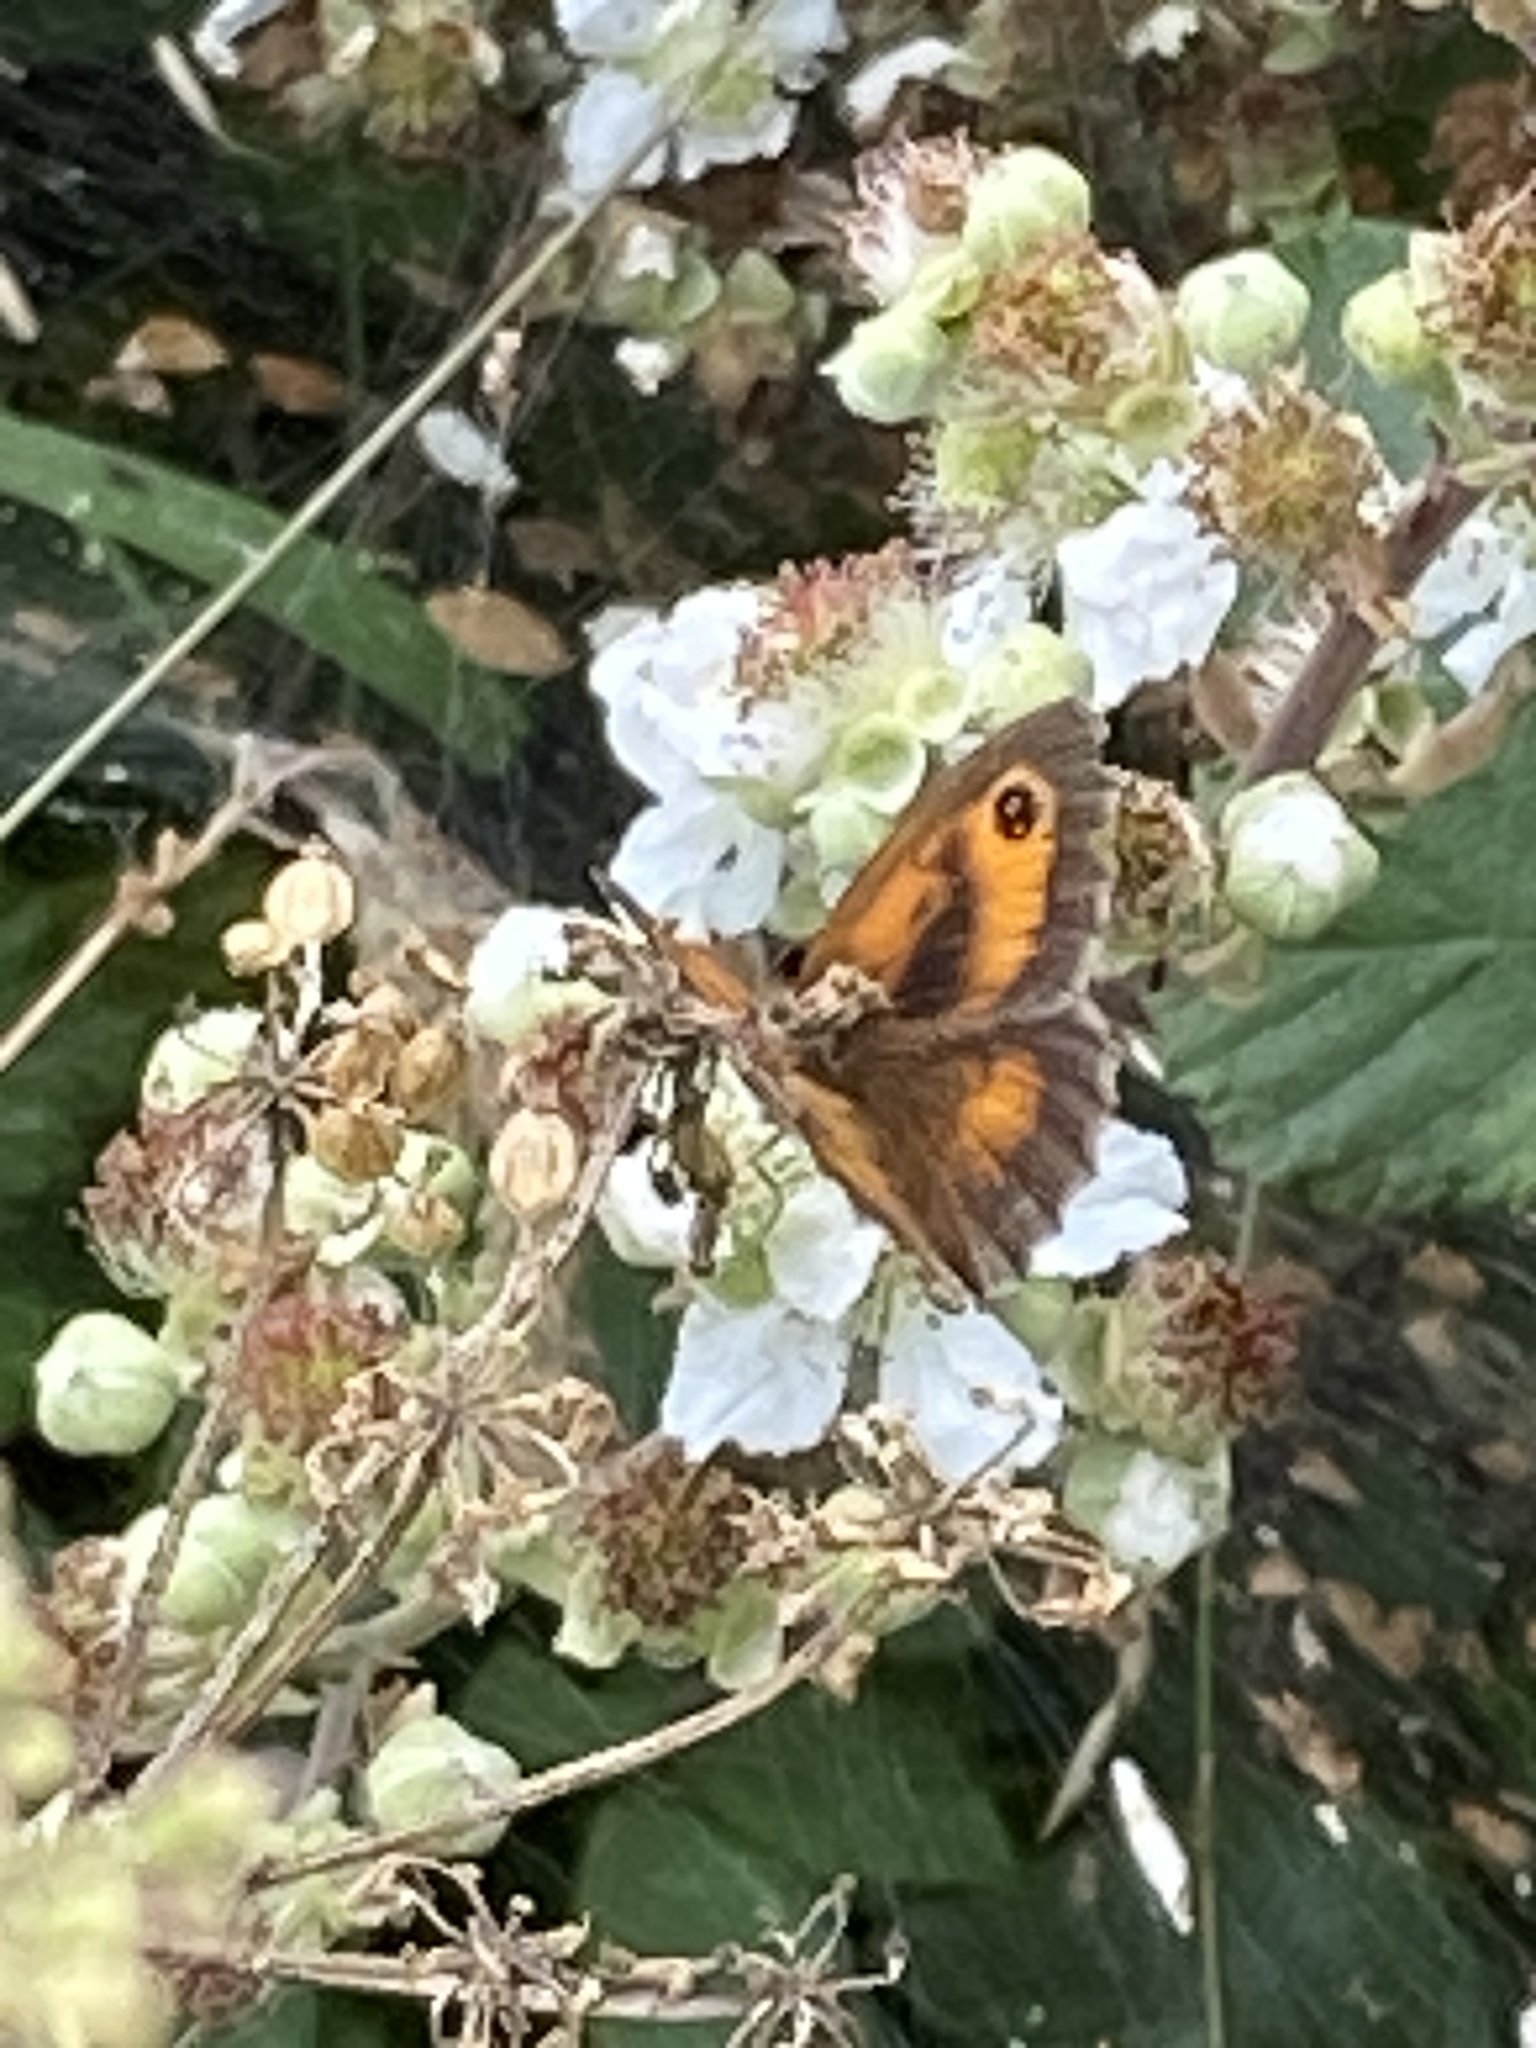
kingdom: Animalia
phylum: Arthropoda
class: Insecta
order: Lepidoptera
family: Nymphalidae
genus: Pyronia
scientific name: Pyronia tithonus
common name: Gatekeeper
